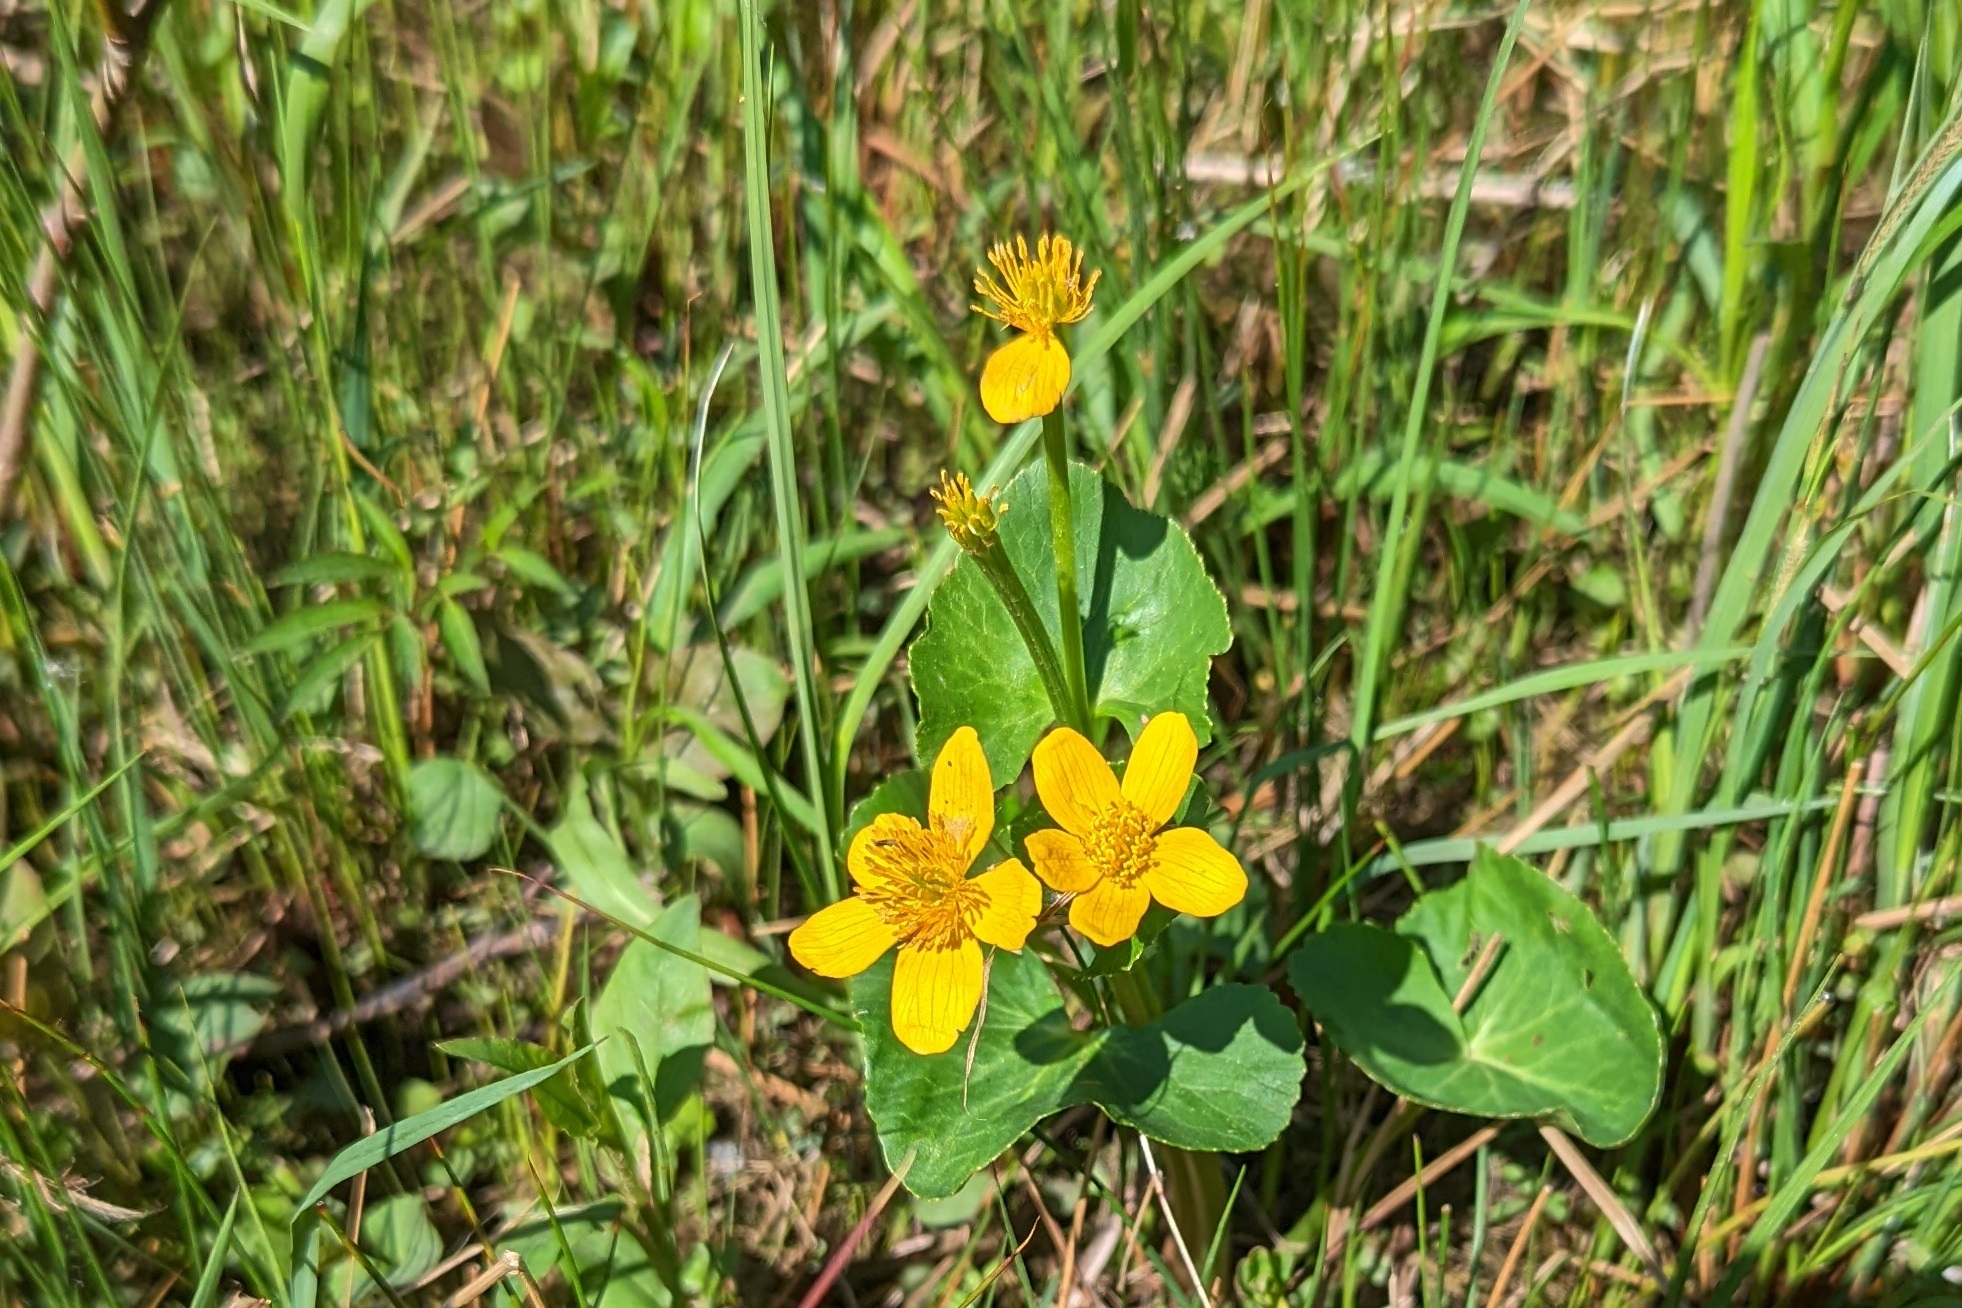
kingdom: Plantae
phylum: Tracheophyta
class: Magnoliopsida
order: Ranunculales
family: Ranunculaceae
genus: Caltha
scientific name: Caltha palustris
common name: Marsh marigold
